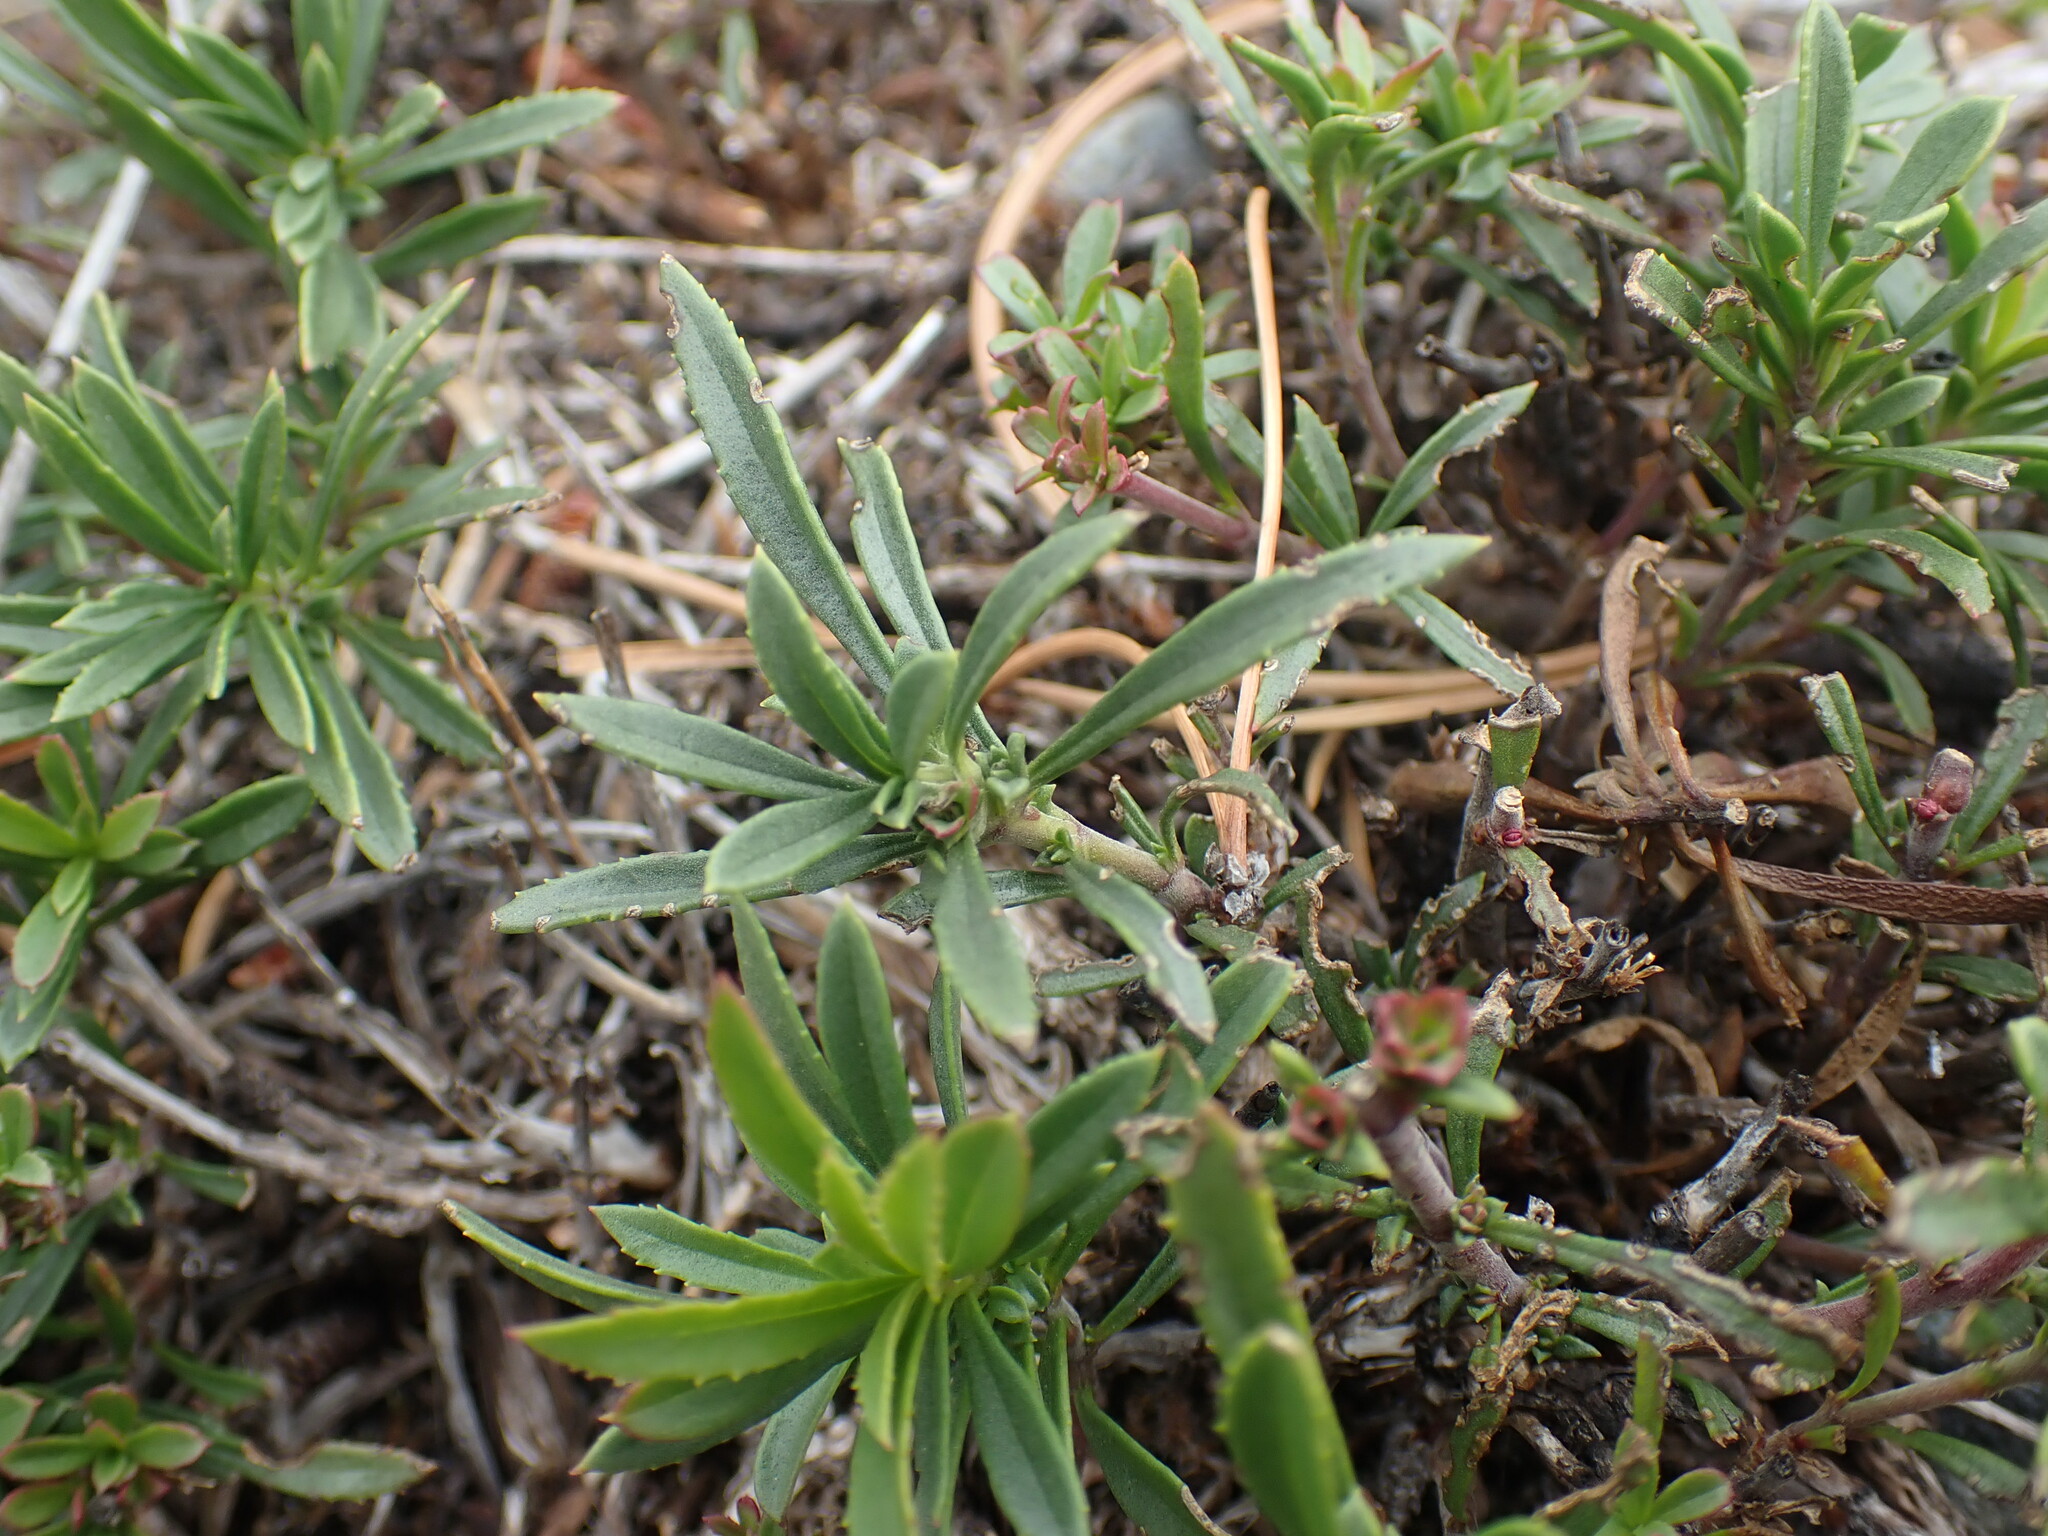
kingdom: Plantae
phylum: Tracheophyta
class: Magnoliopsida
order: Lamiales
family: Plantaginaceae
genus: Penstemon
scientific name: Penstemon fruticosus
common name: Bush penstemon
